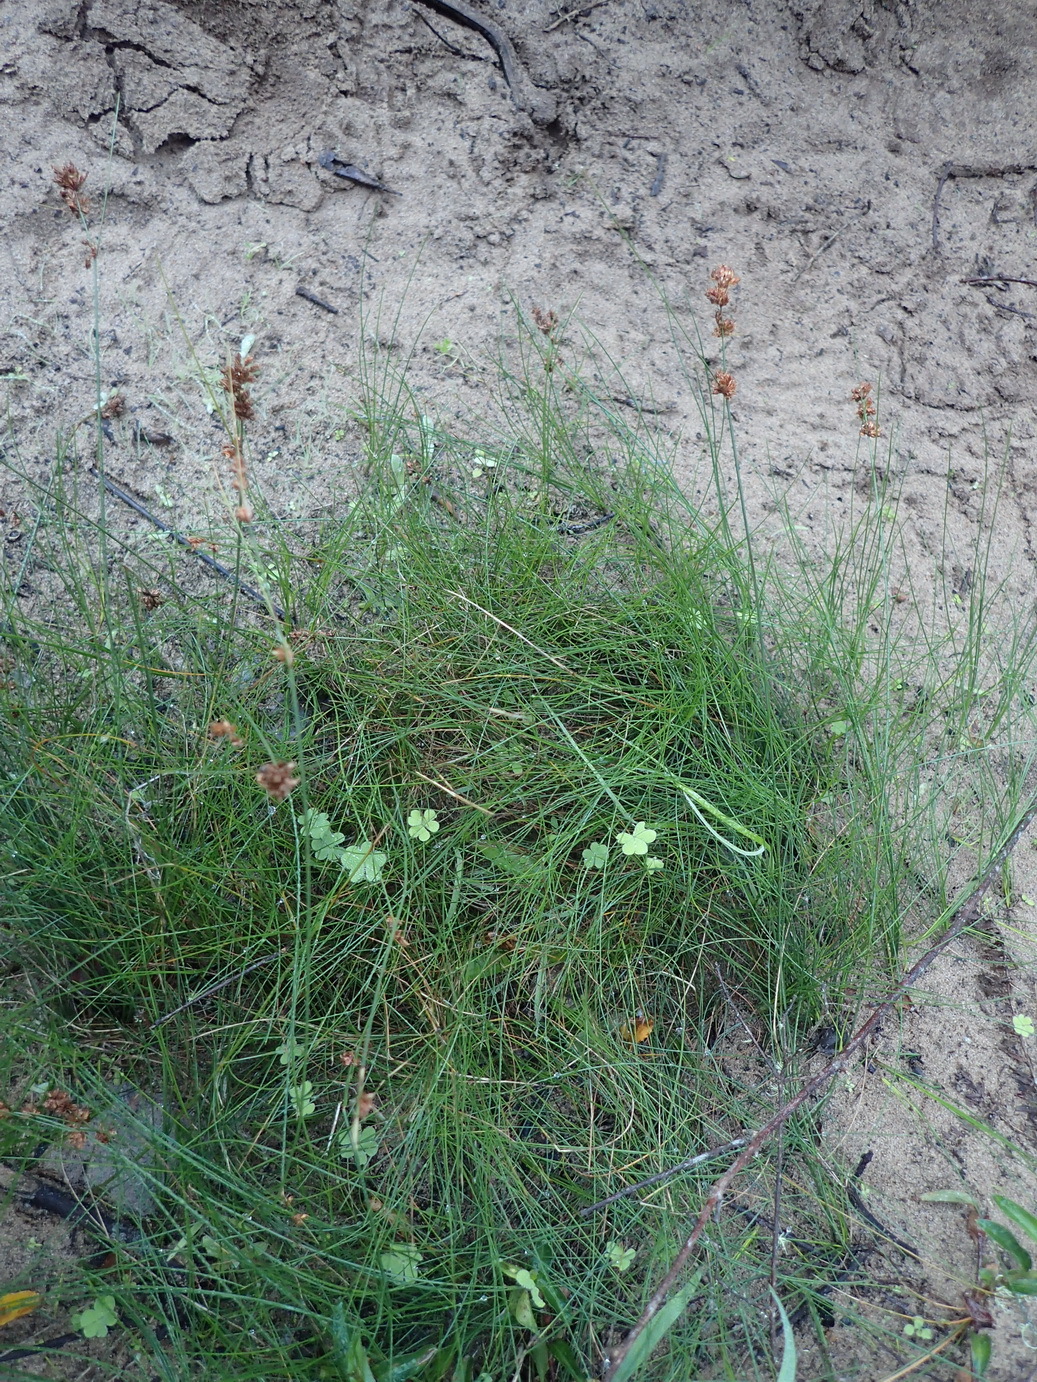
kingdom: Plantae
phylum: Tracheophyta
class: Liliopsida
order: Poales
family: Cyperaceae
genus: Ficinia
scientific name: Ficinia bulbosa
